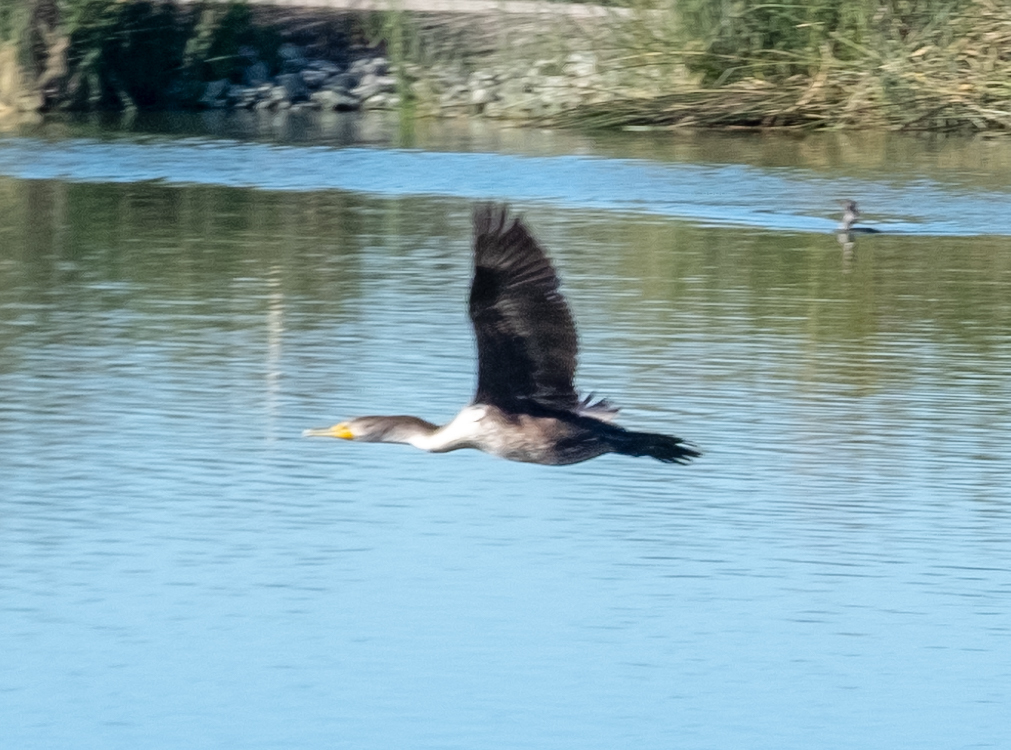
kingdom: Animalia
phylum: Chordata
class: Aves
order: Suliformes
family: Phalacrocoracidae
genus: Phalacrocorax
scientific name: Phalacrocorax auritus
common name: Double-crested cormorant
